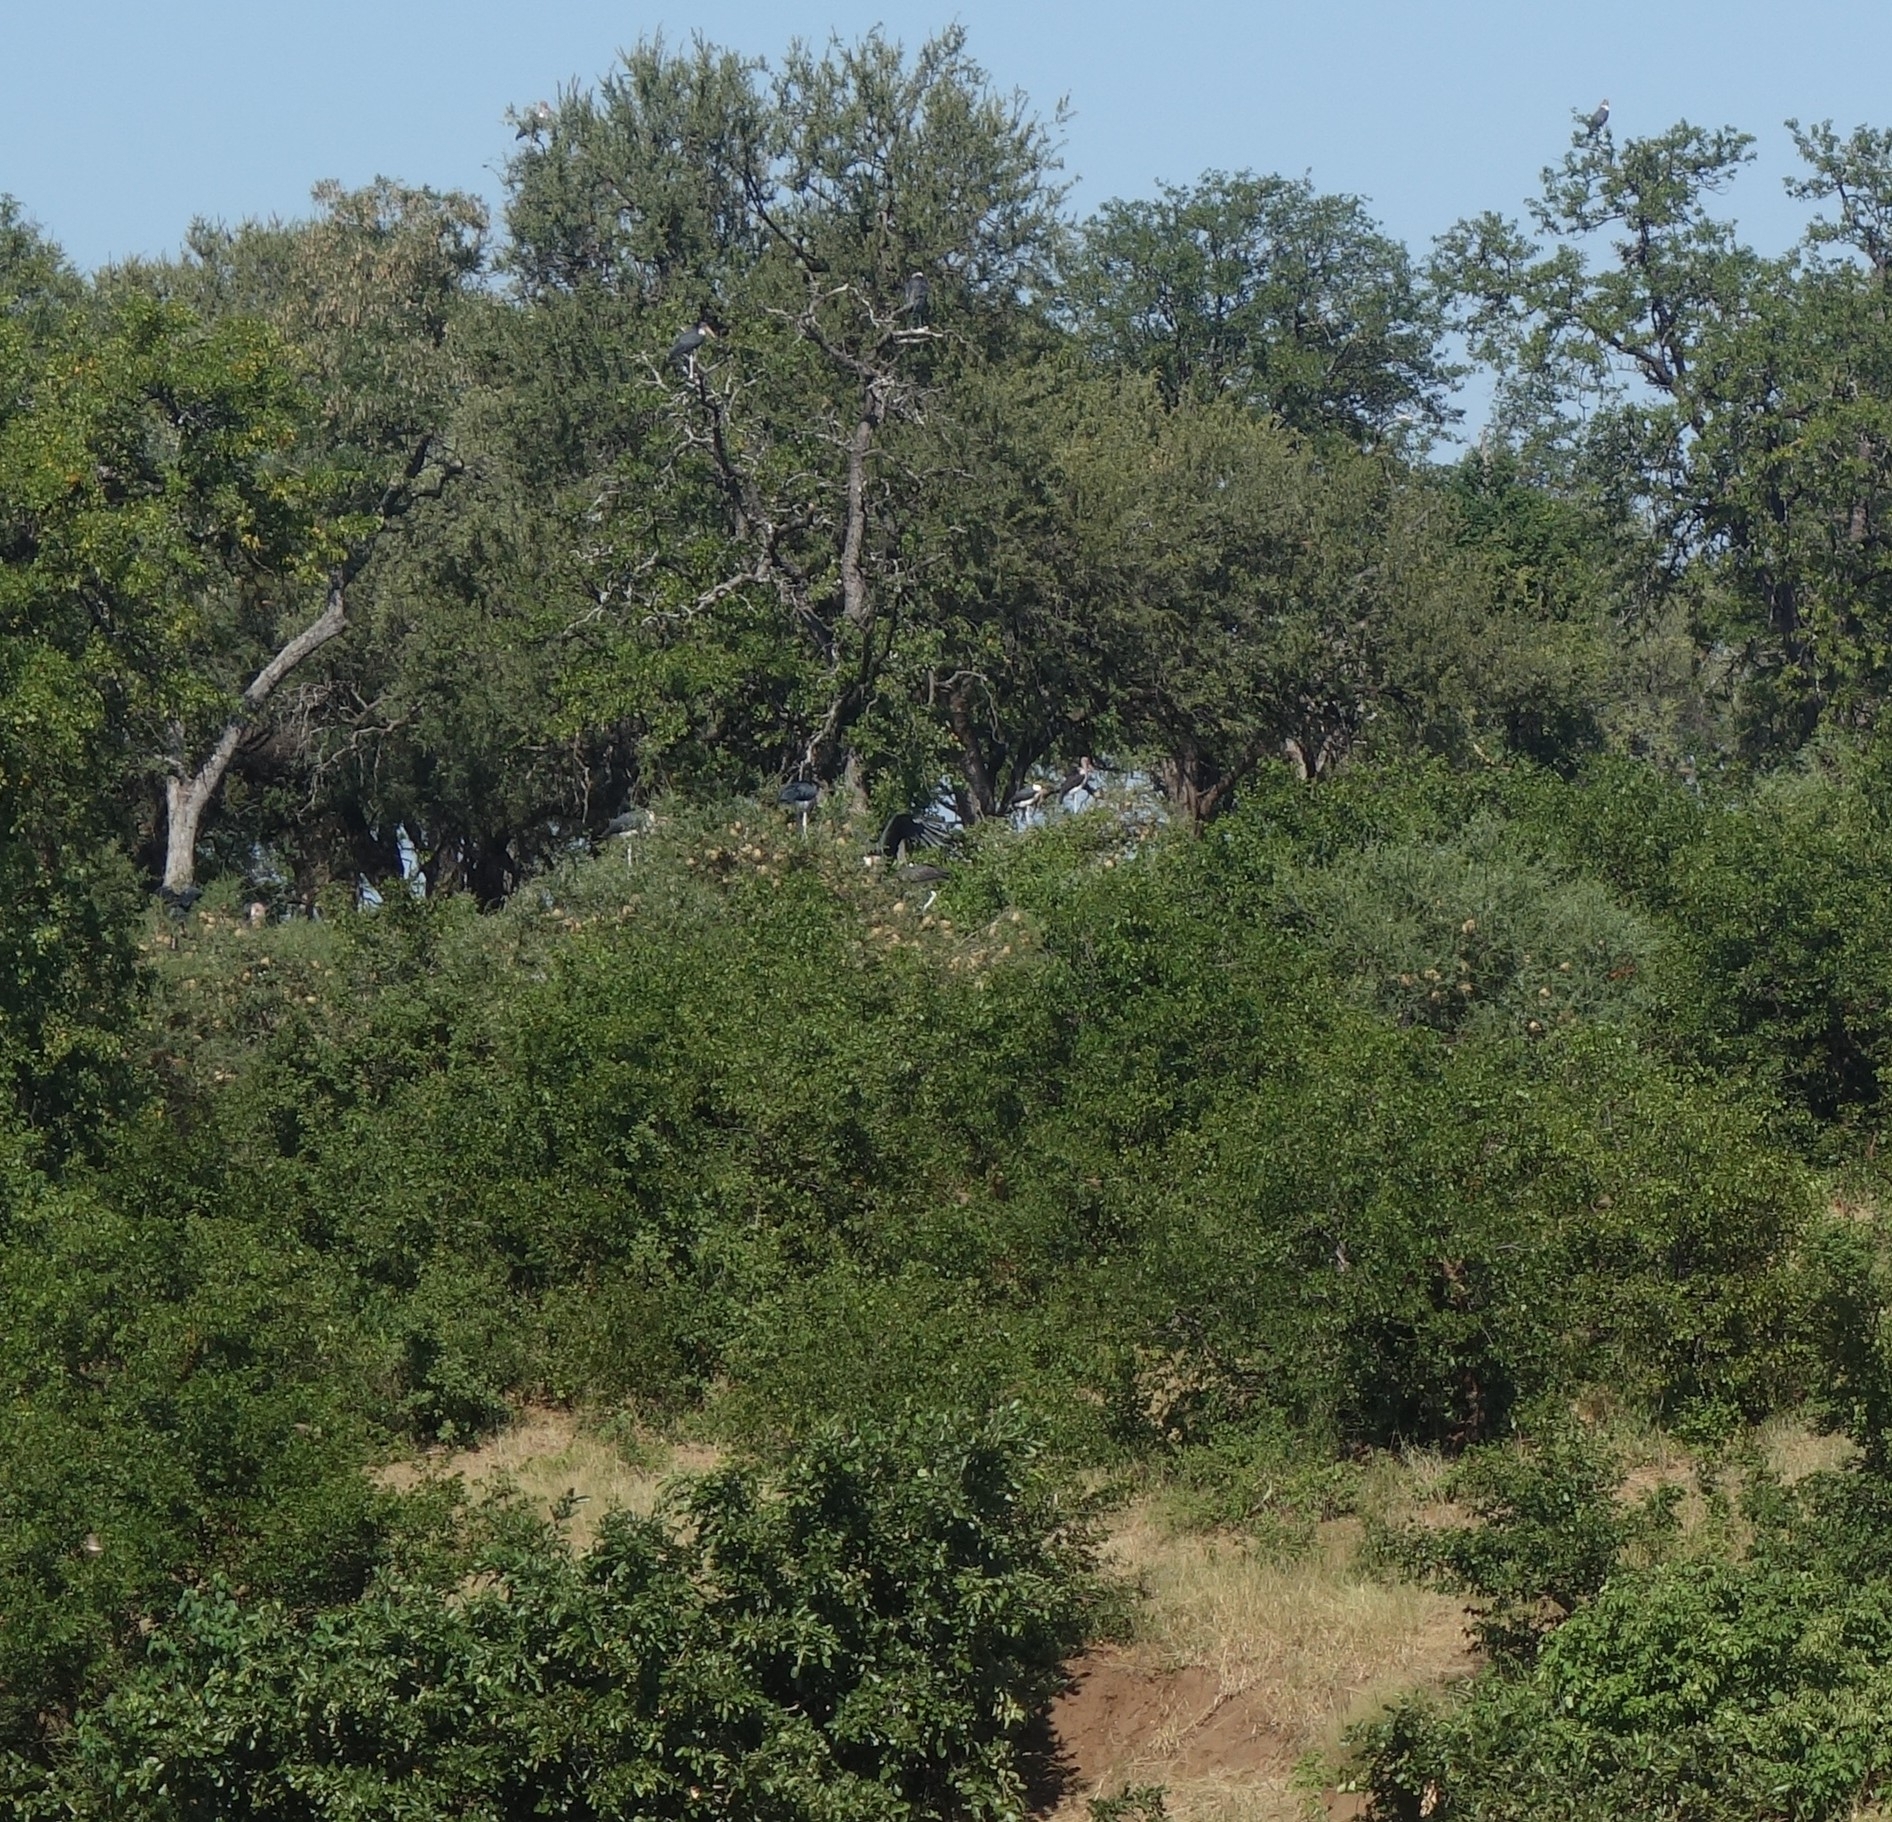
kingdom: Animalia
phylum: Chordata
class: Aves
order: Ciconiiformes
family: Ciconiidae
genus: Leptoptilos
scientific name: Leptoptilos crumenifer
